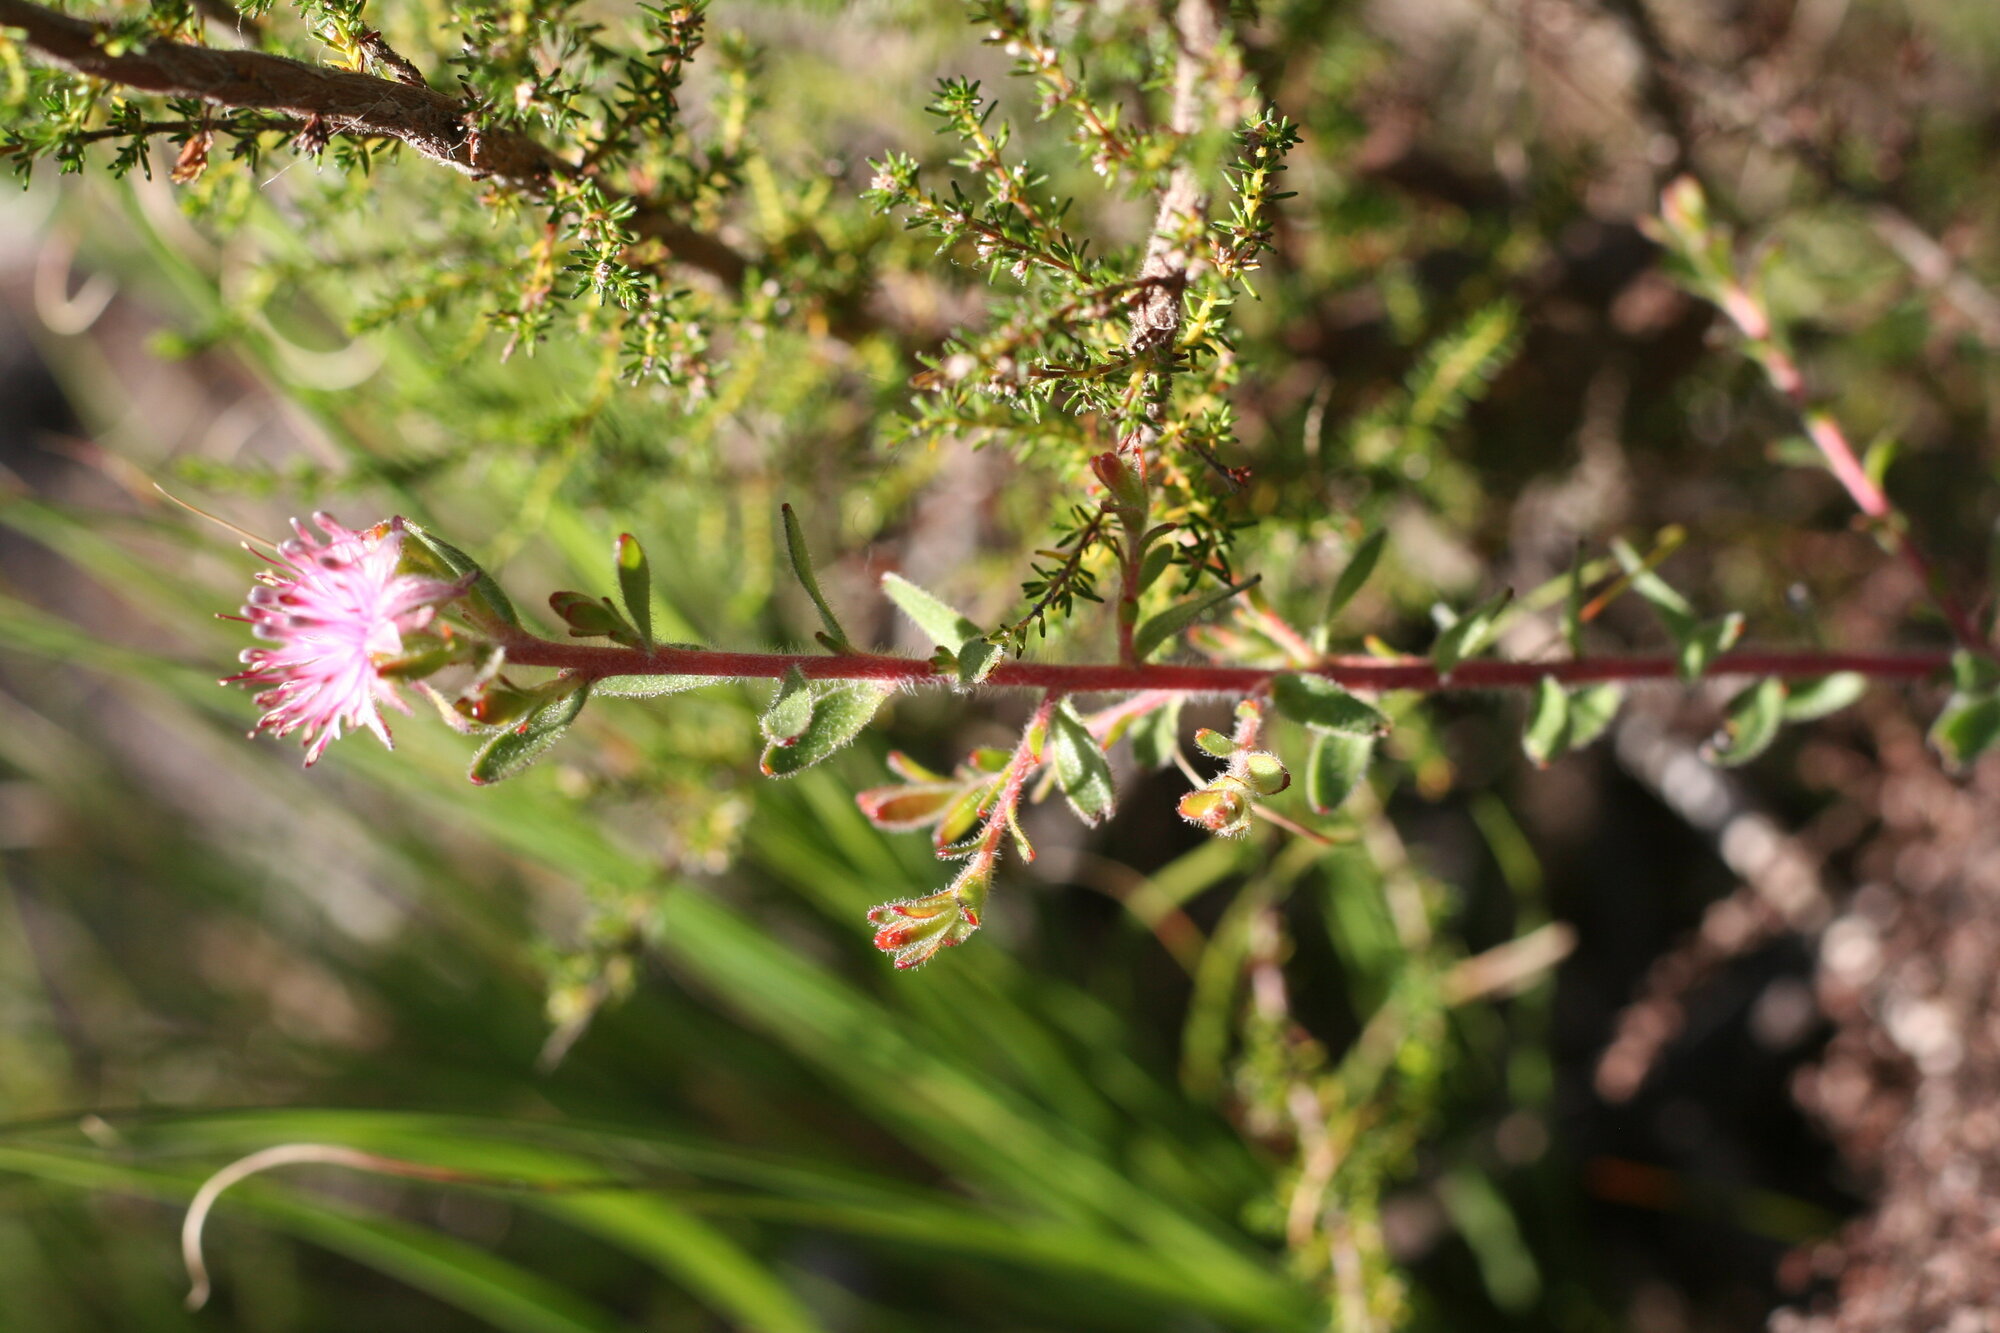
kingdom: Plantae
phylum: Tracheophyta
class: Magnoliopsida
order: Proteales
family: Proteaceae
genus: Diastella
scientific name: Diastella divaricata
